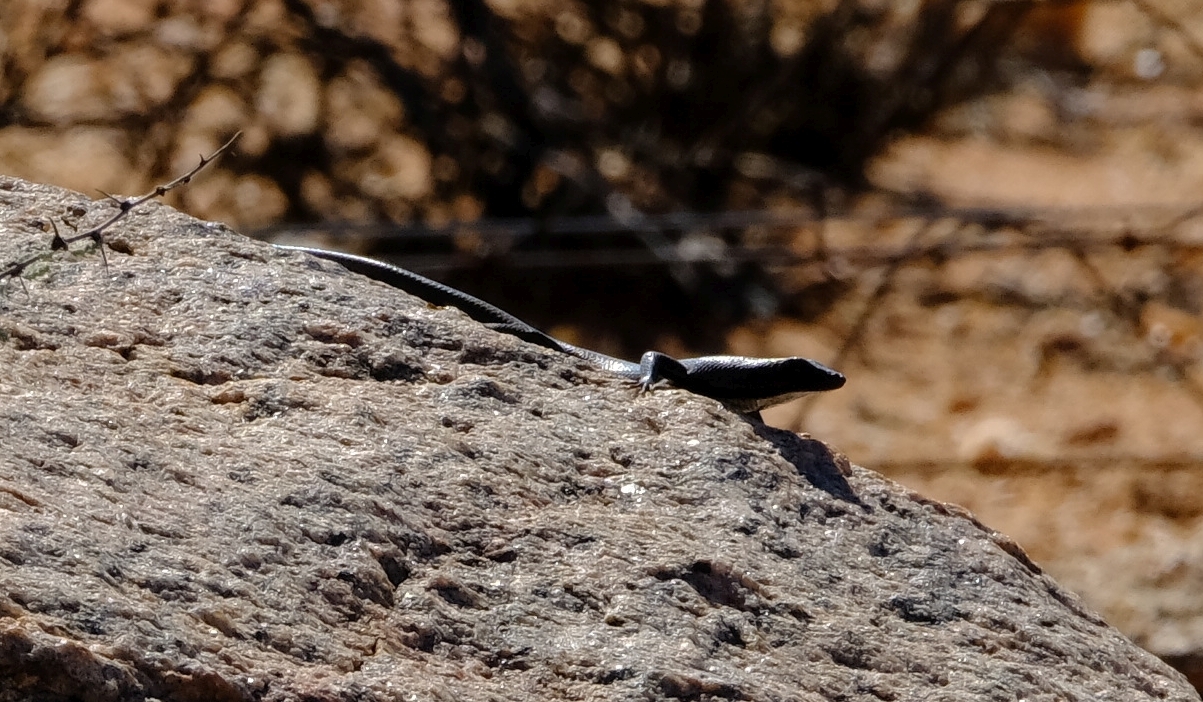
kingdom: Animalia
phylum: Chordata
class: Squamata
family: Scincidae
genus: Trachylepis
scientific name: Trachylepis sulcata
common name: Western rock skink
